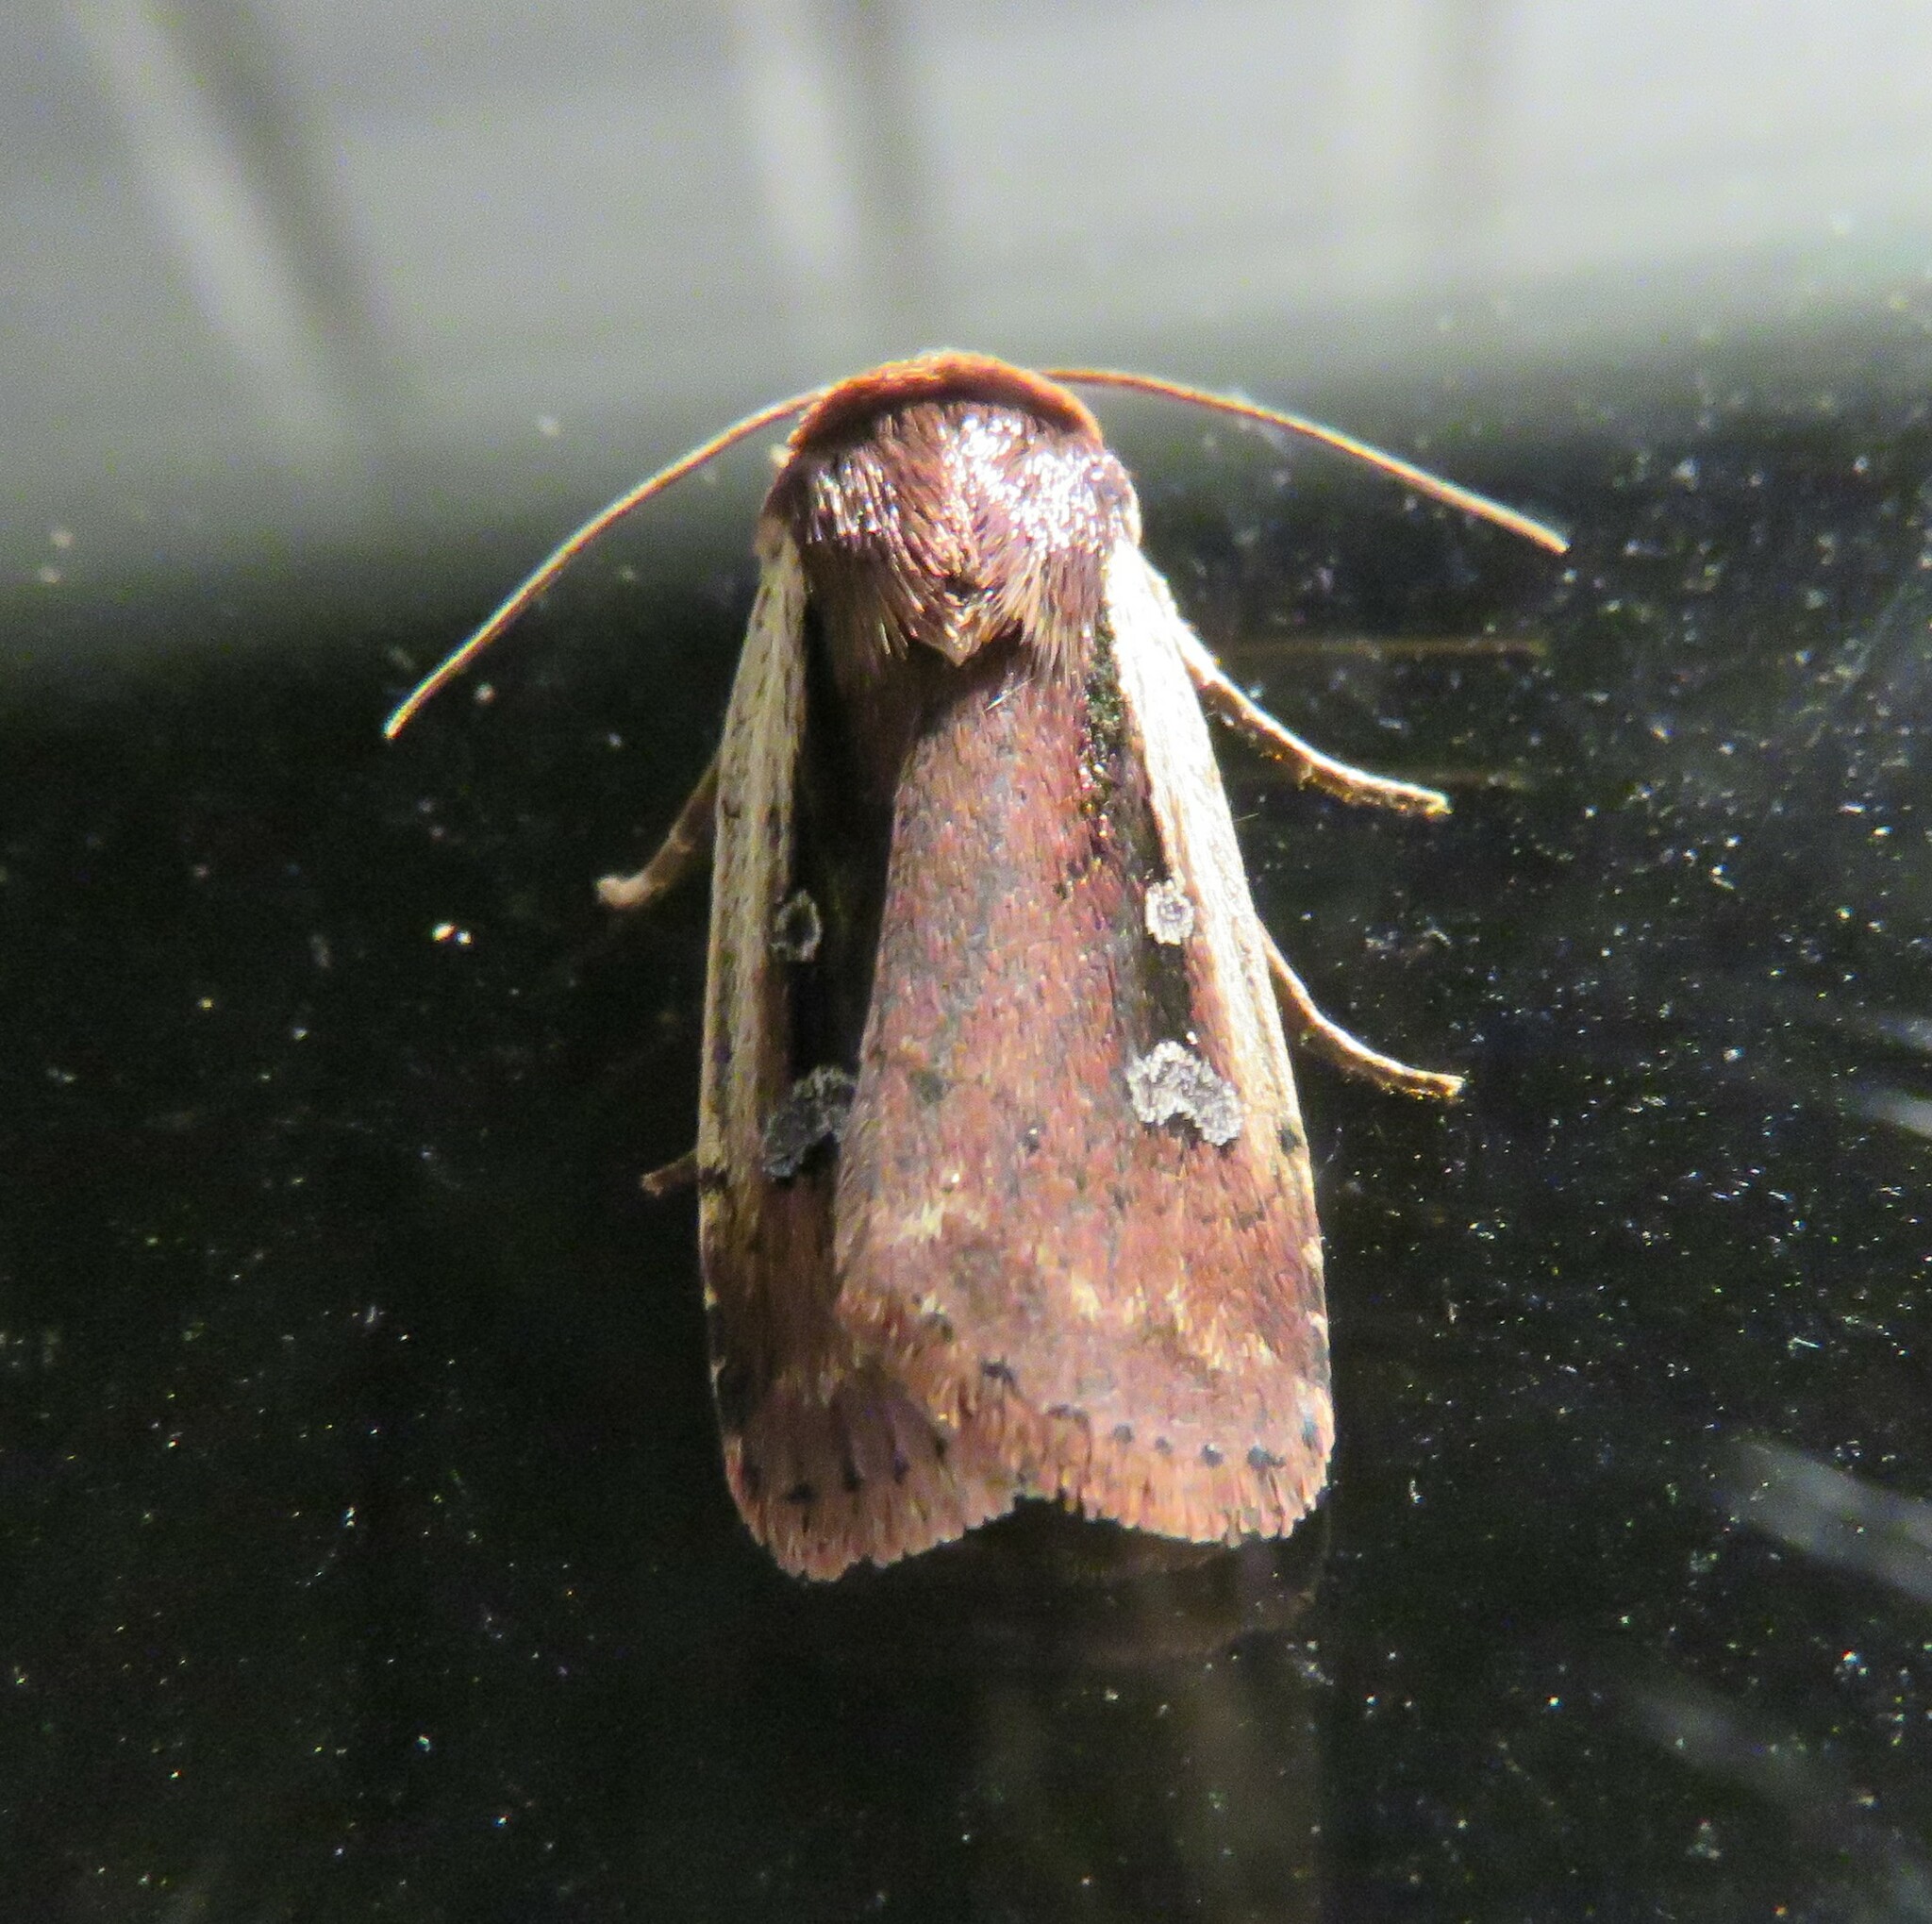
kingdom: Animalia
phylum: Arthropoda
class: Insecta
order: Lepidoptera
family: Noctuidae
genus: Ochropleura
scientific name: Ochropleura implecta
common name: Flame-shouldered dart
